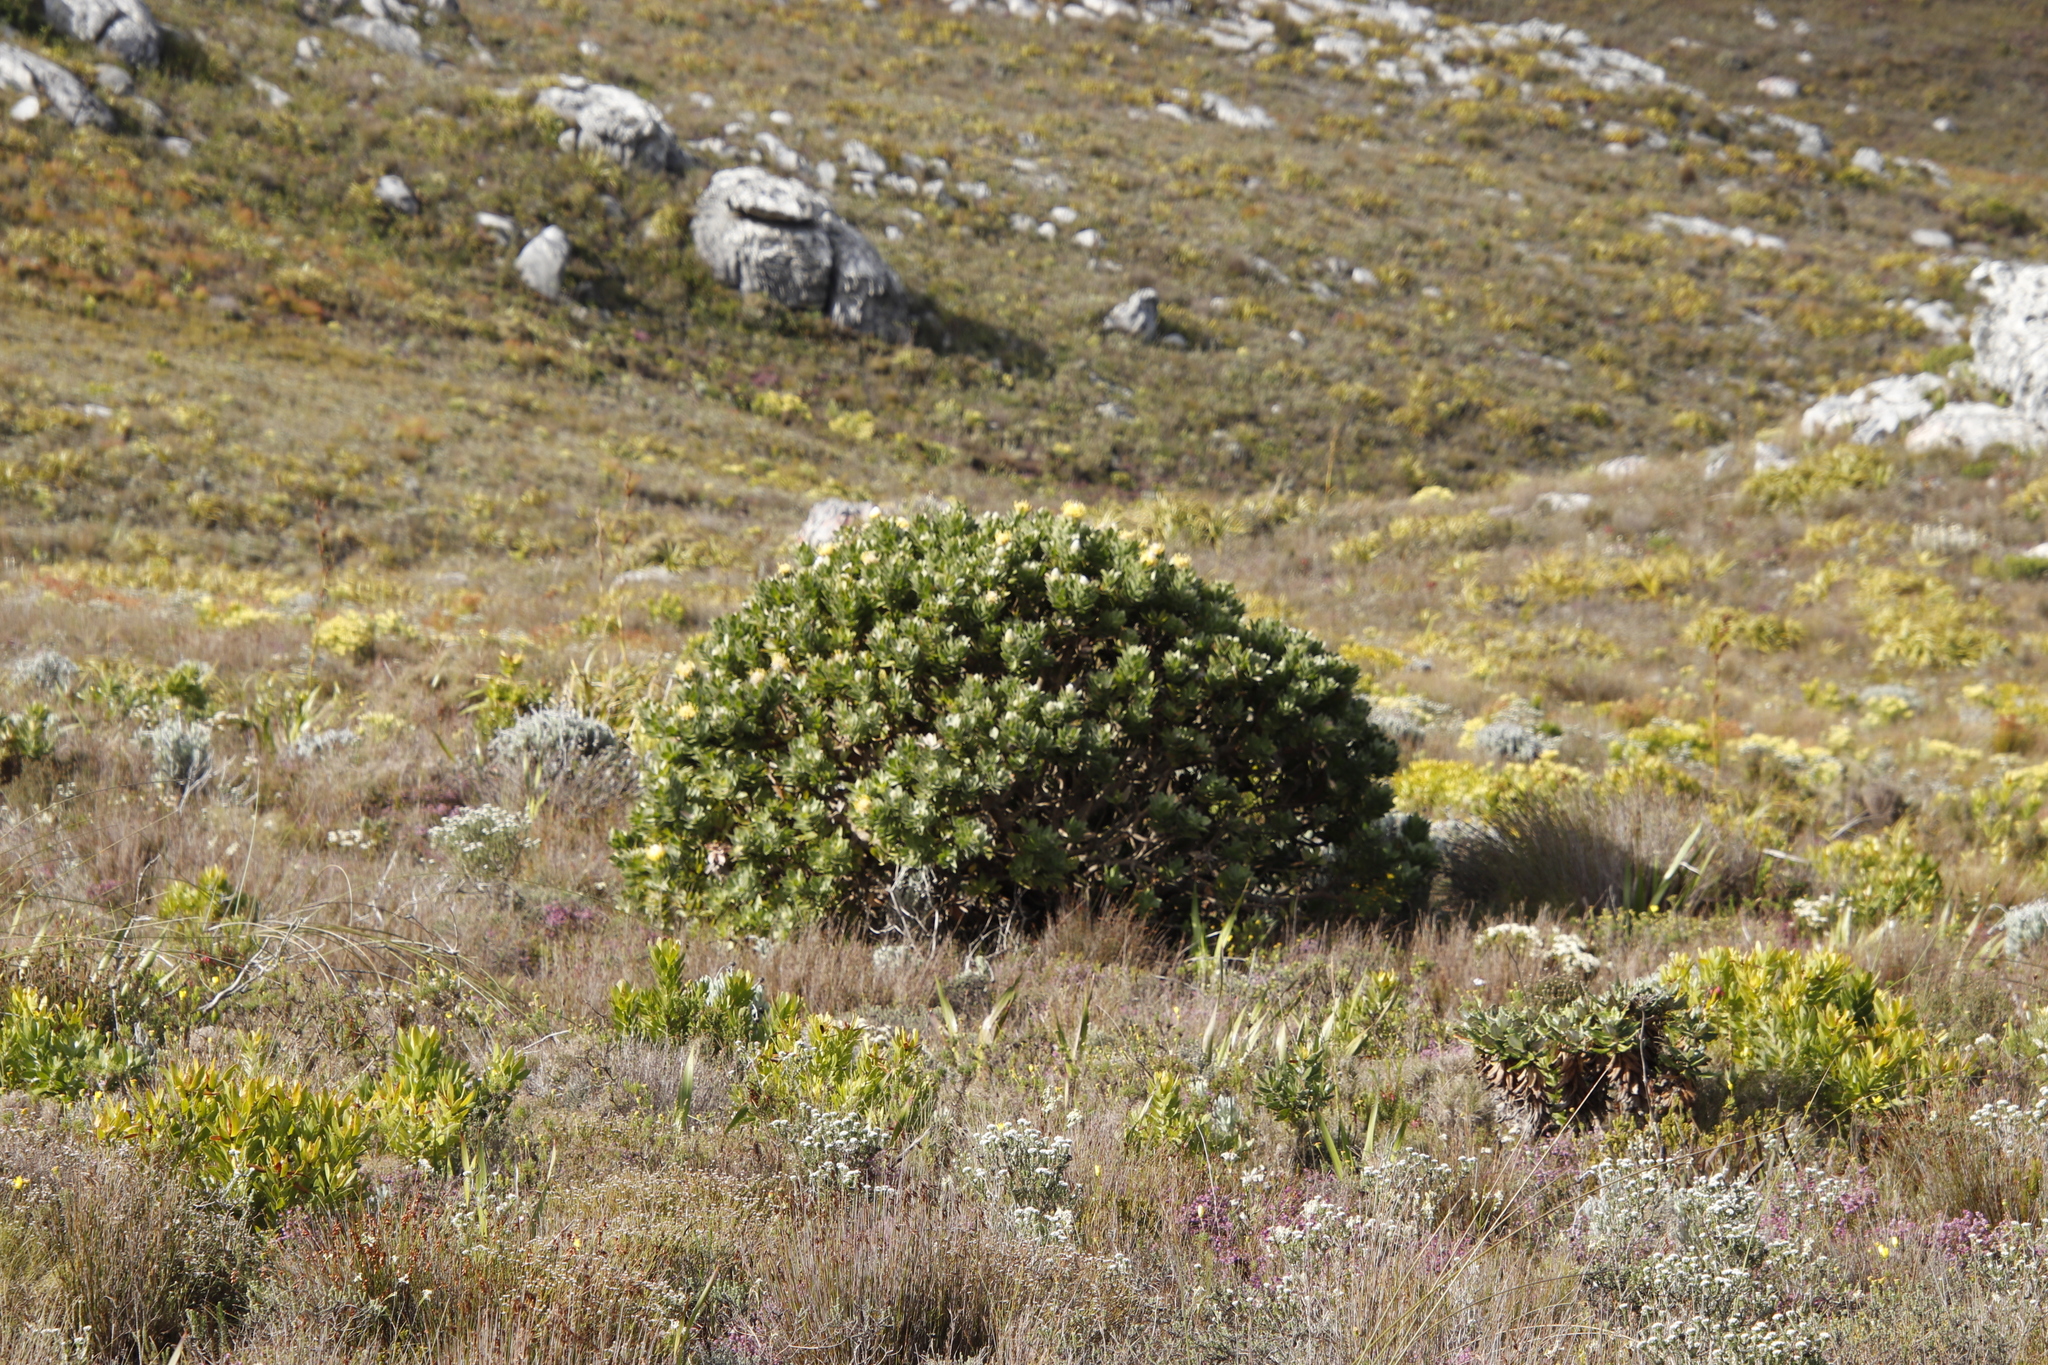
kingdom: Plantae
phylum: Tracheophyta
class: Magnoliopsida
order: Proteales
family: Proteaceae
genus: Leucospermum
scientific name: Leucospermum conocarpodendron
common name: Tree pincushion
